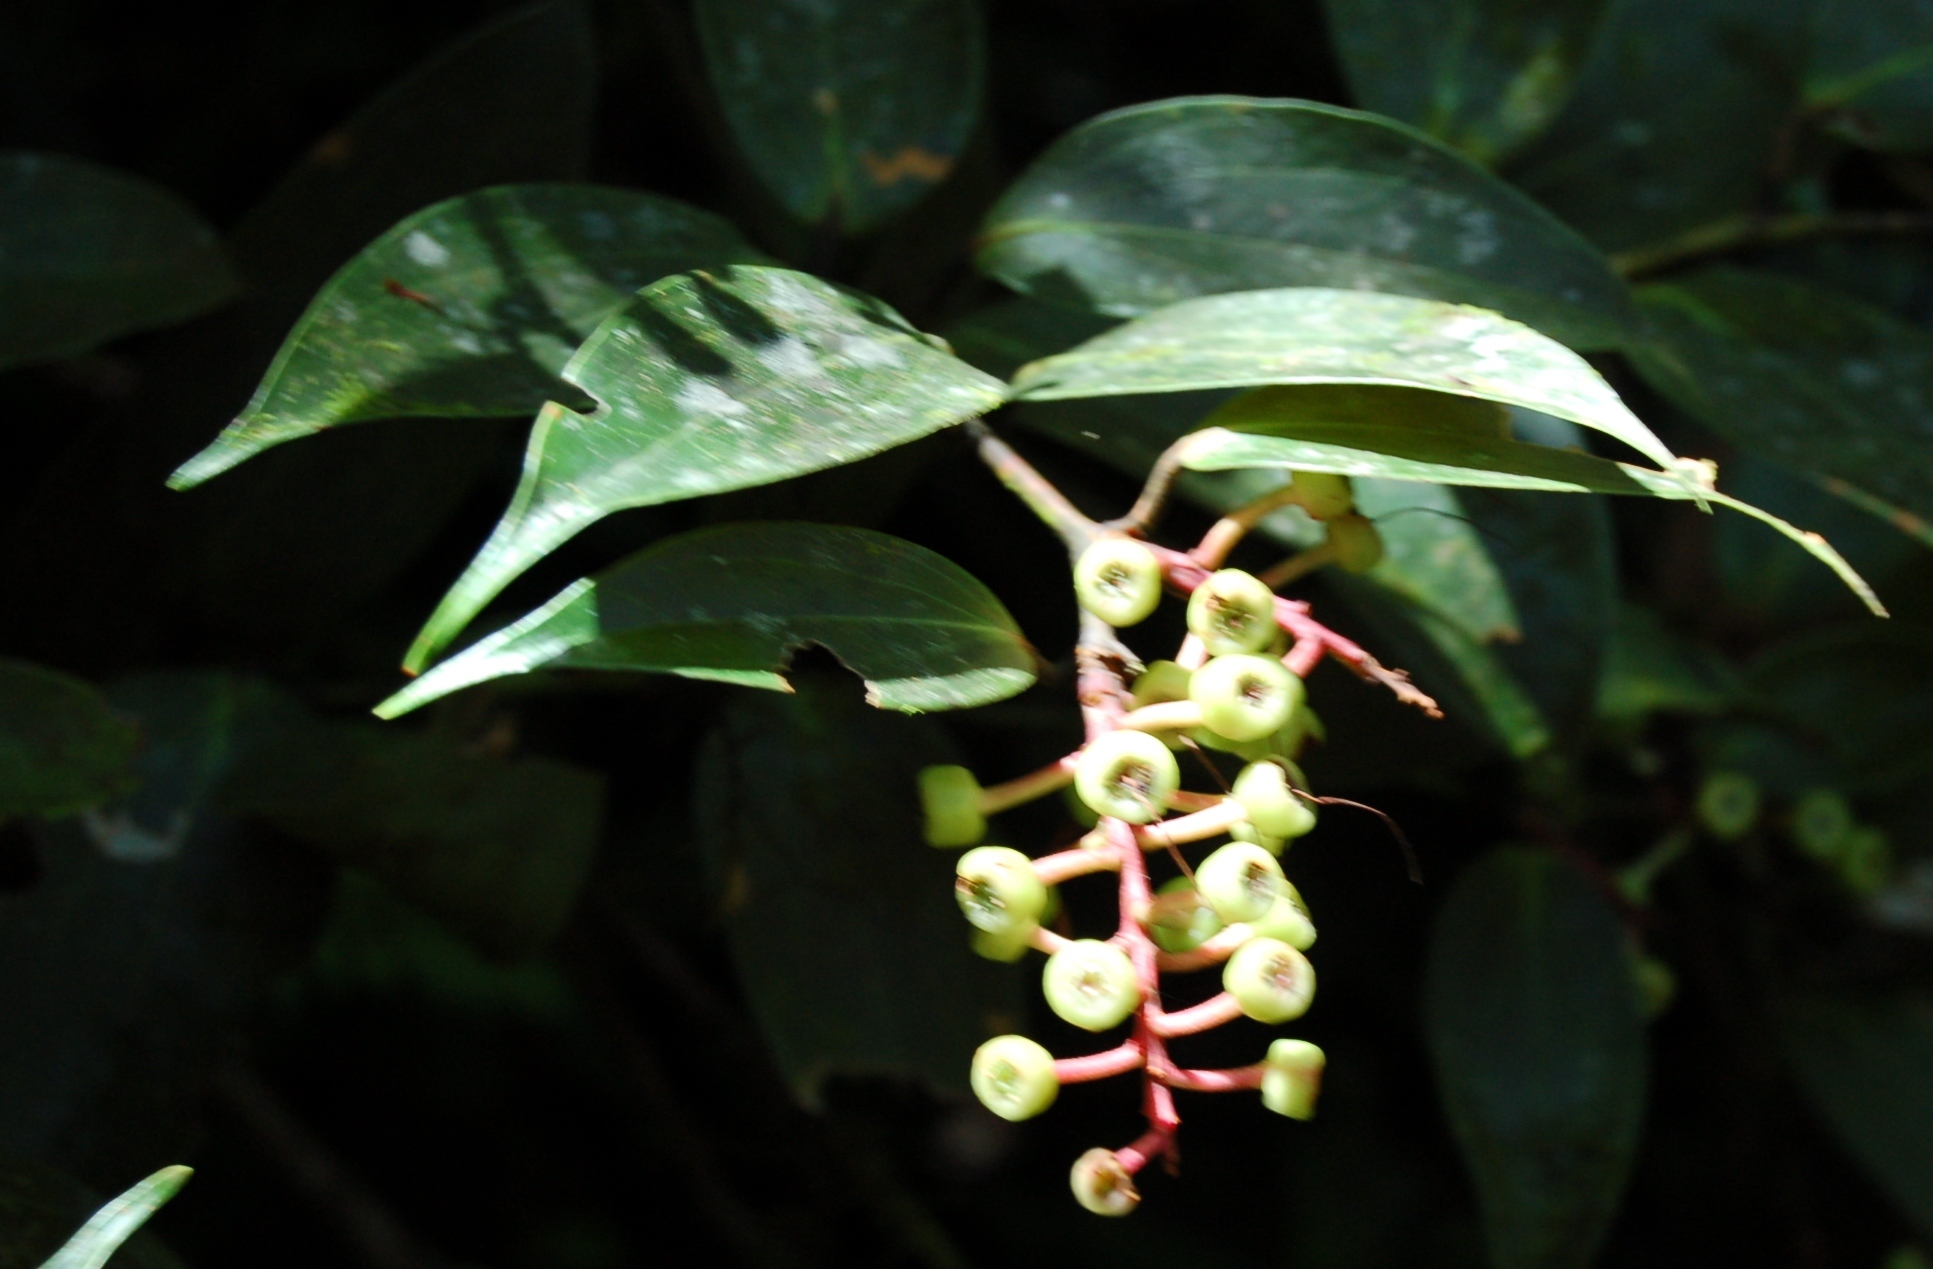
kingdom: Plantae
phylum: Tracheophyta
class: Magnoliopsida
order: Ericales
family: Ericaceae
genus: Cavendishia
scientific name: Cavendishia bracteata
